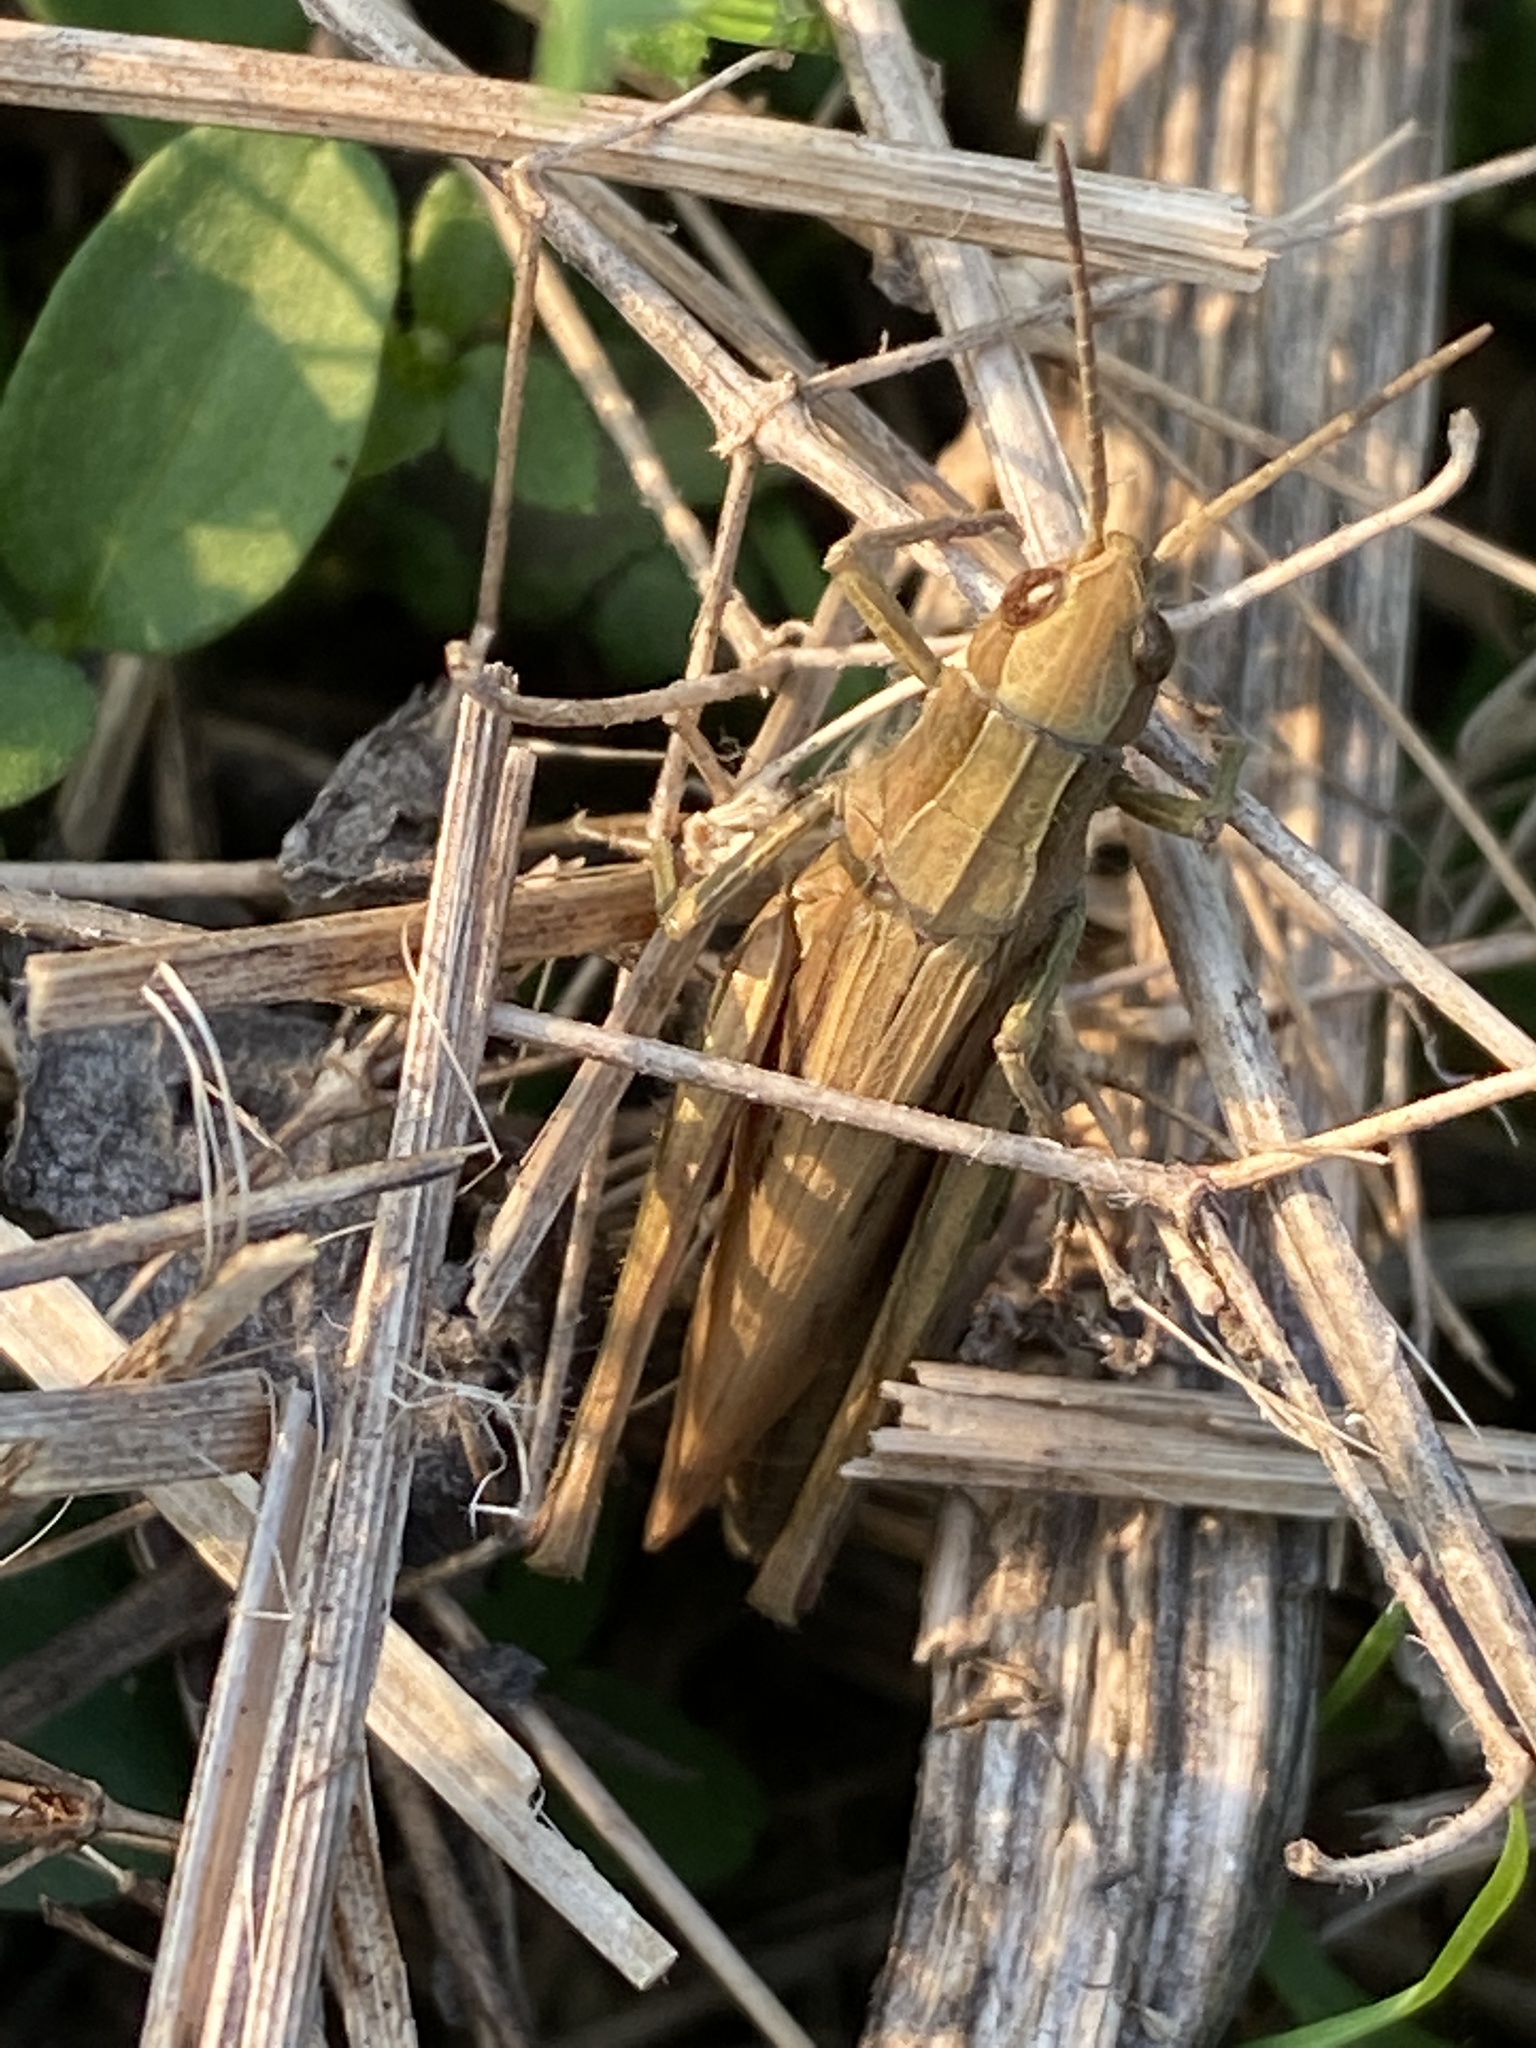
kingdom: Animalia
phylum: Arthropoda
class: Insecta
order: Orthoptera
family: Acrididae
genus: Chorthippus
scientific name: Chorthippus dorsatus
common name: Steppe grasshopper
